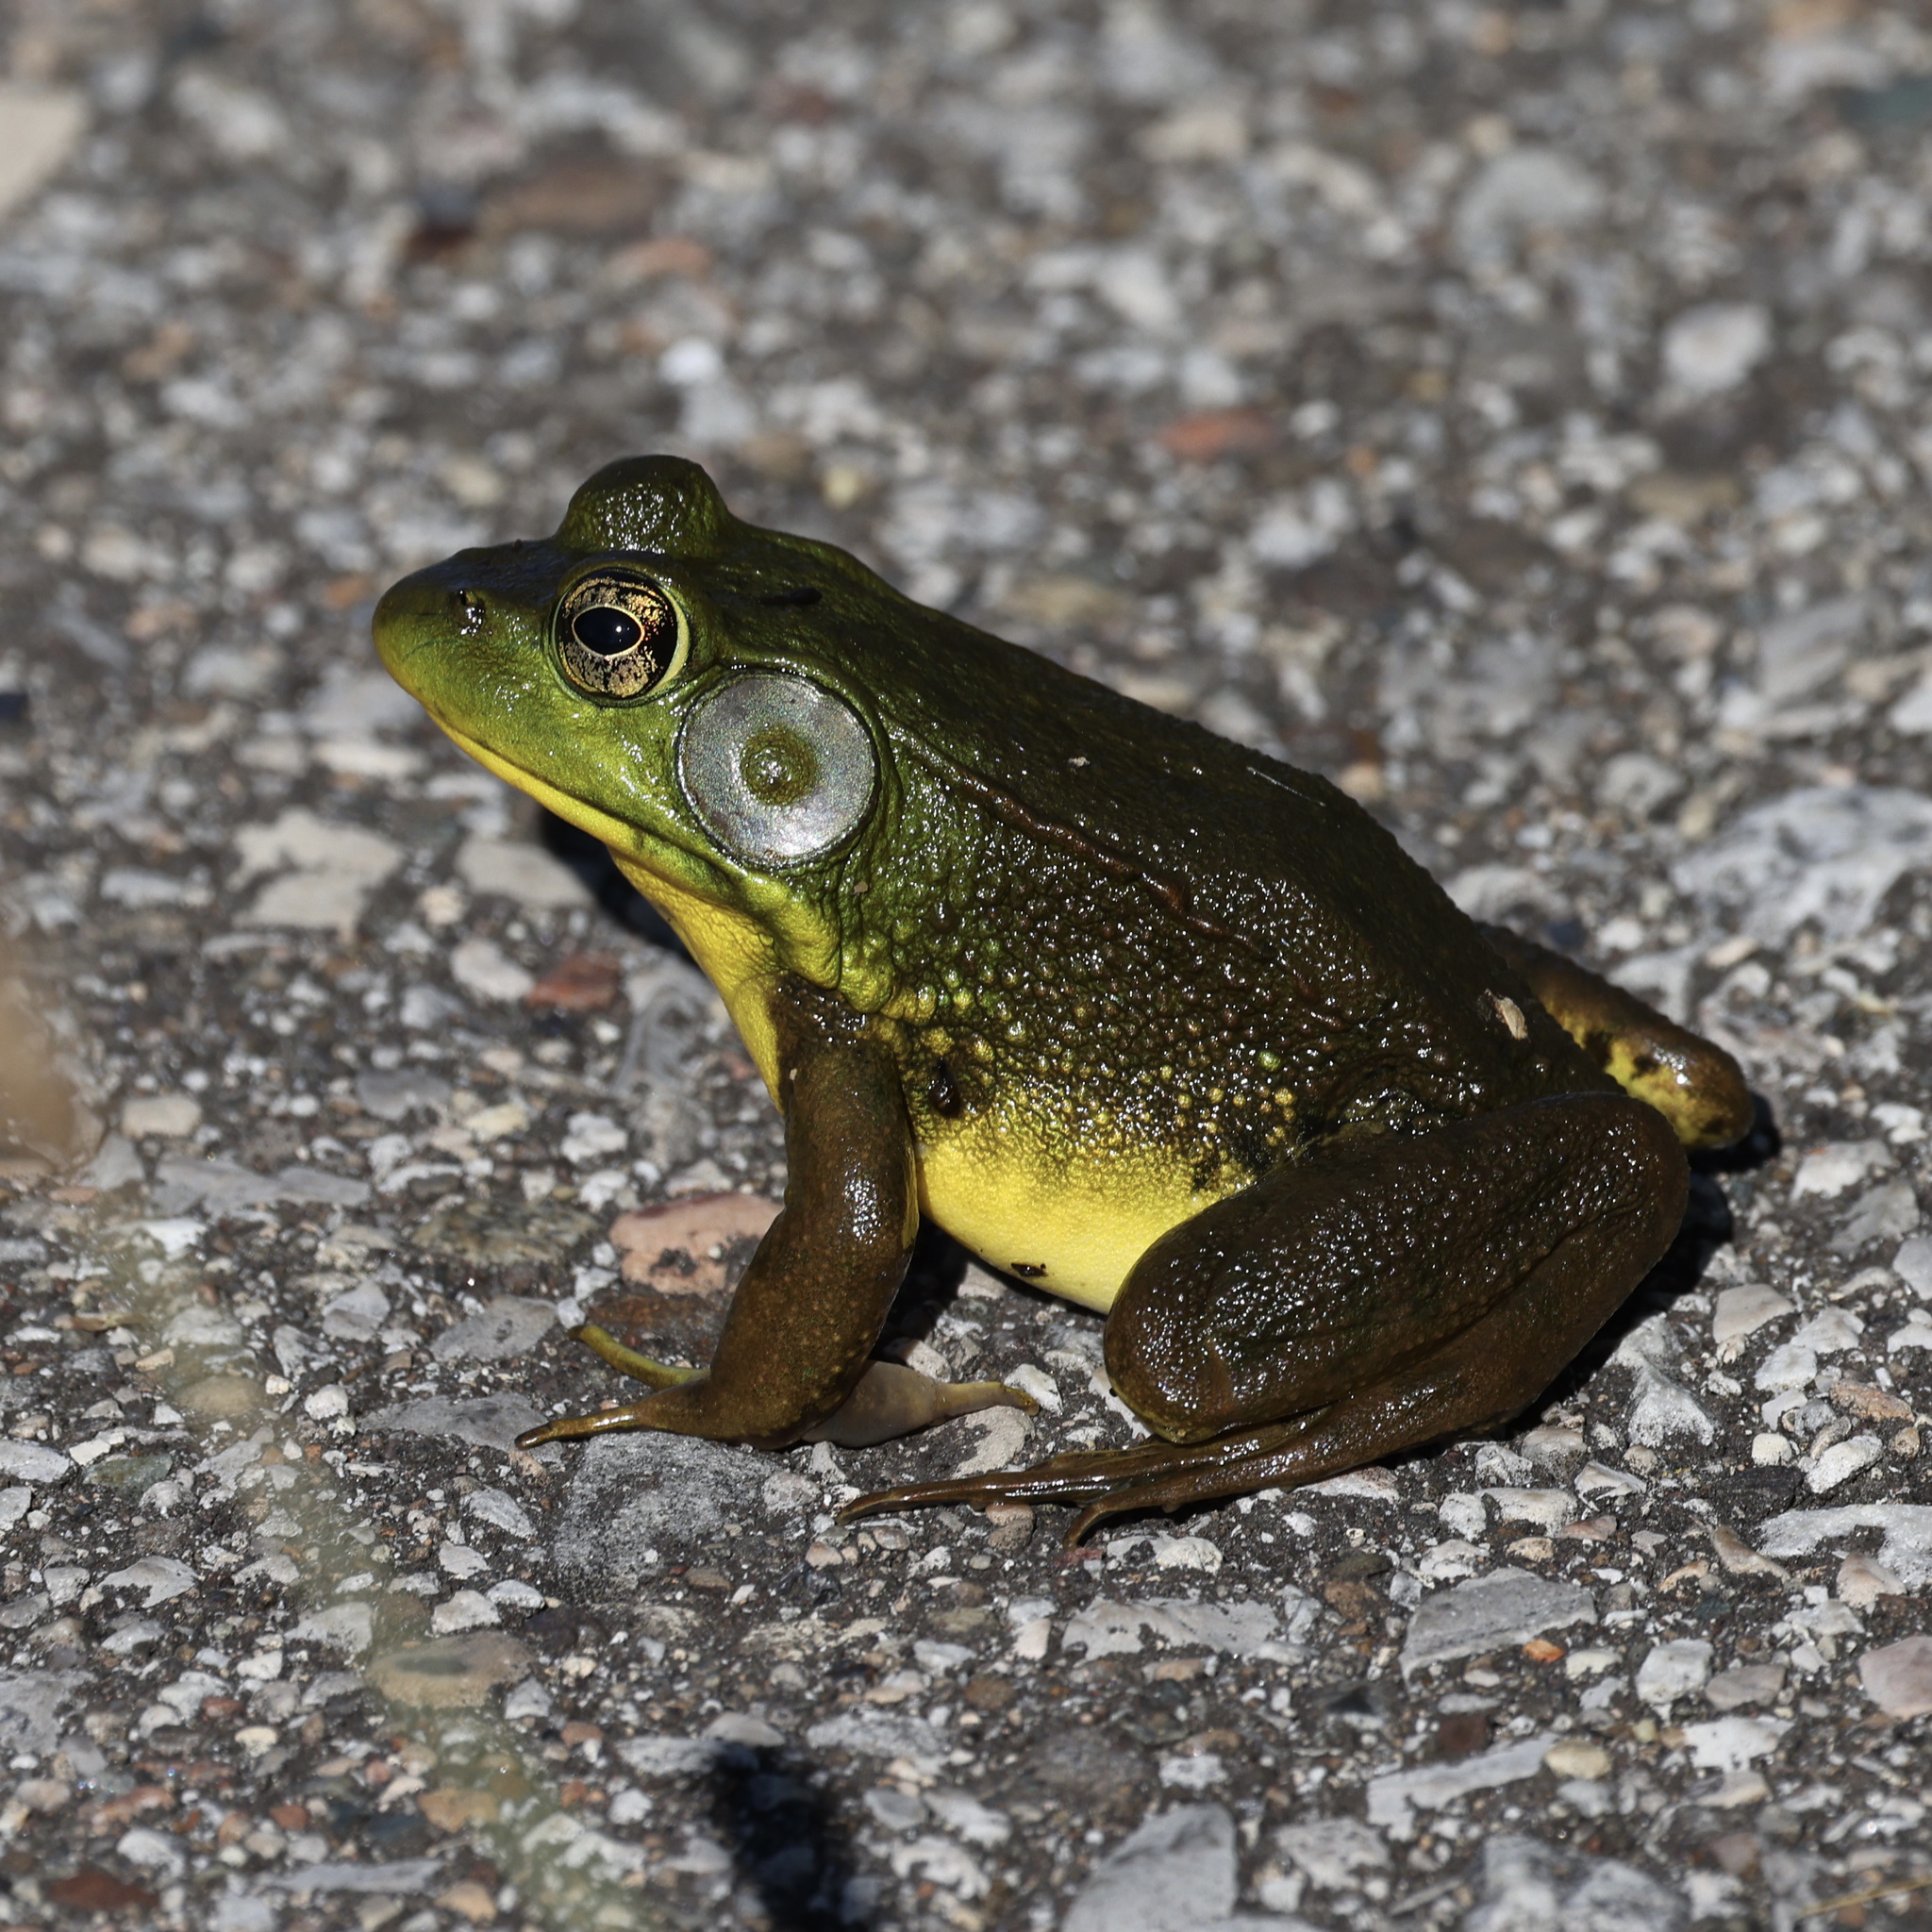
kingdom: Animalia
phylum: Chordata
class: Amphibia
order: Anura
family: Ranidae
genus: Lithobates
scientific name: Lithobates clamitans
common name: Green frog
